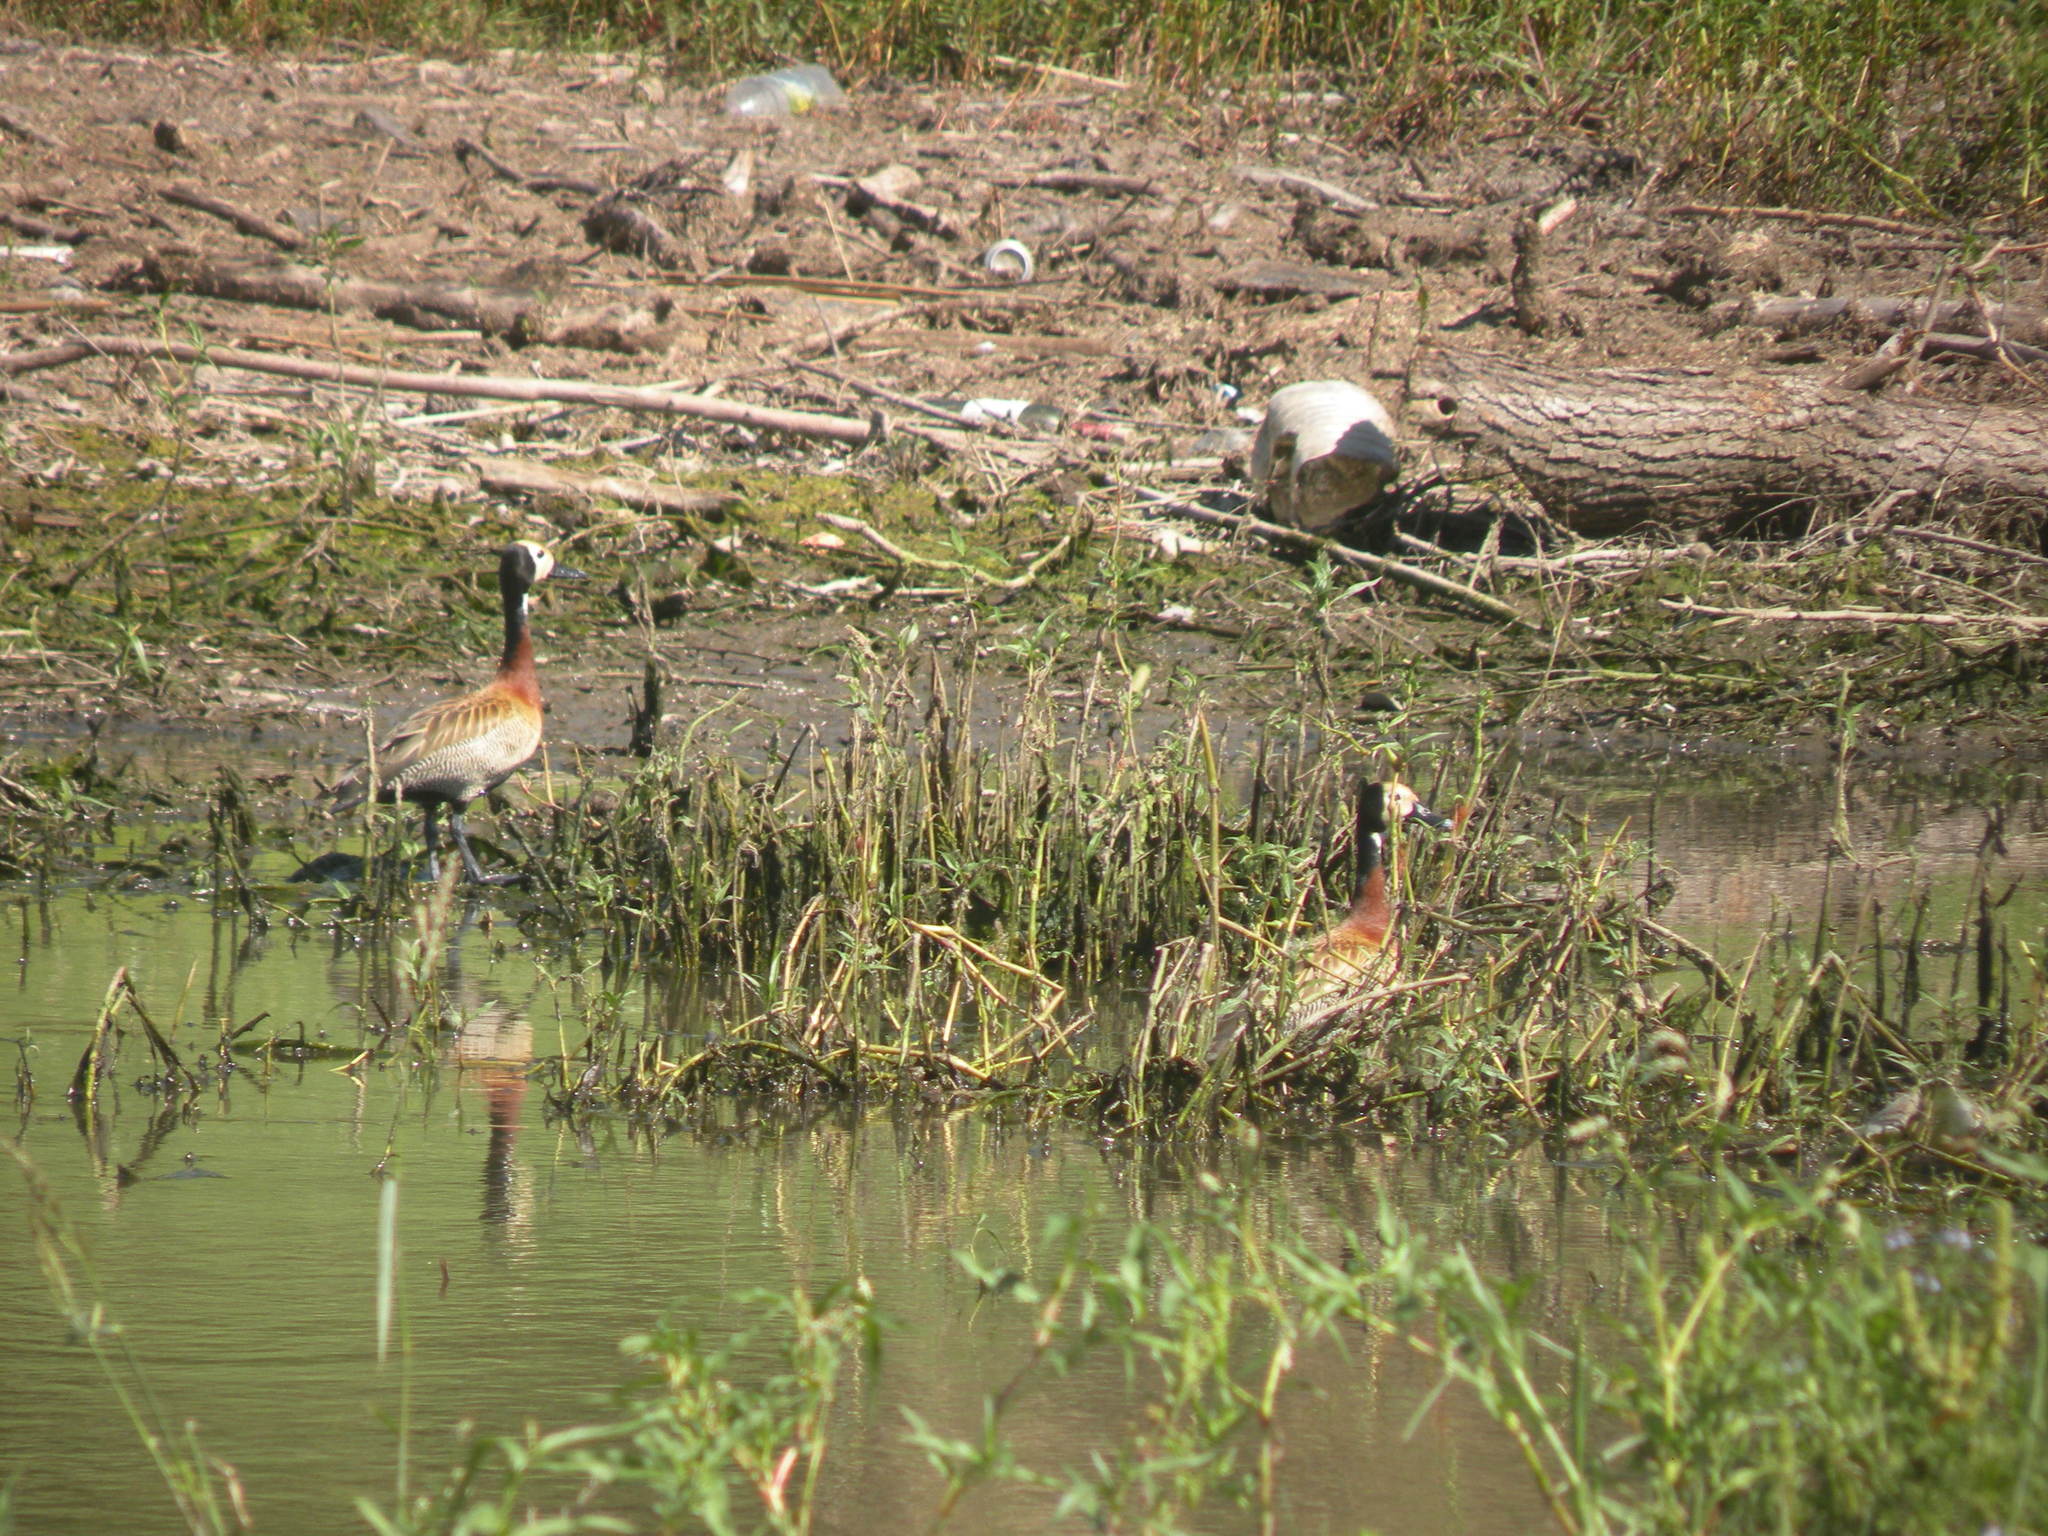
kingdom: Animalia
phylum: Chordata
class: Aves
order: Anseriformes
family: Anatidae
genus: Dendrocygna
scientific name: Dendrocygna viduata
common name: White-faced whistling duck
